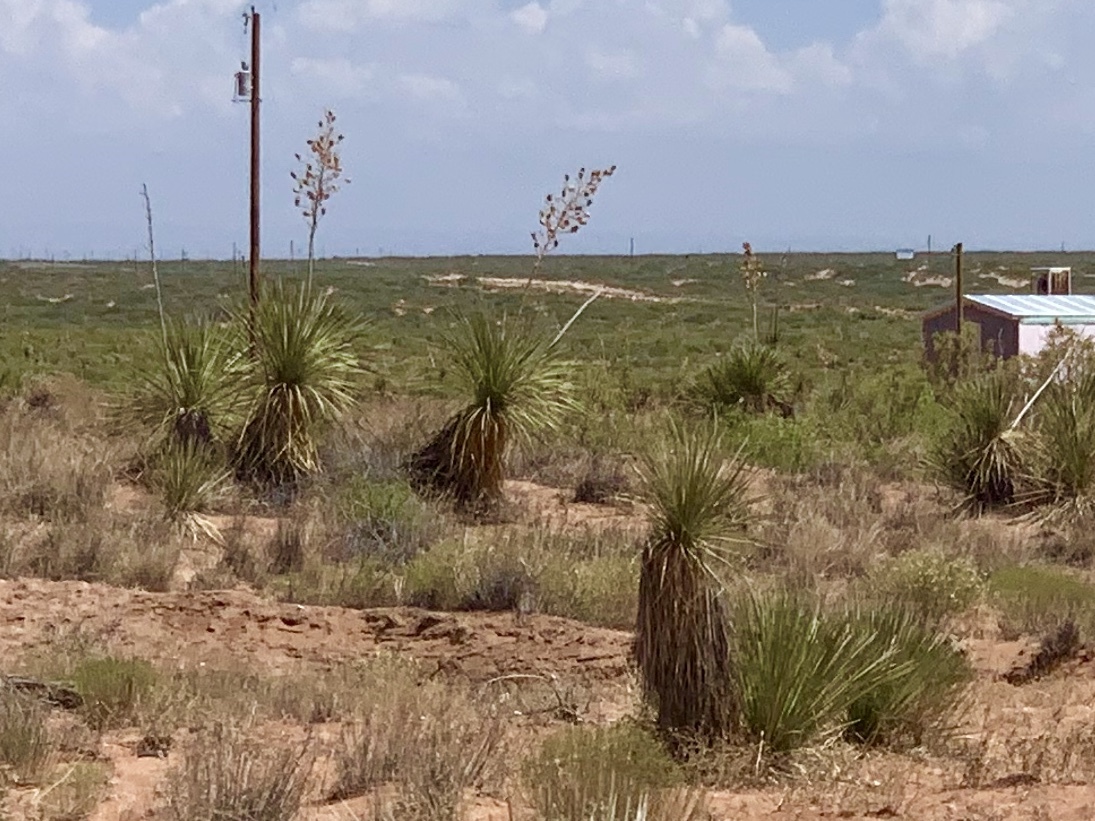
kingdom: Plantae
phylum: Tracheophyta
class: Liliopsida
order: Asparagales
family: Asparagaceae
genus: Yucca
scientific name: Yucca elata
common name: Palmella
